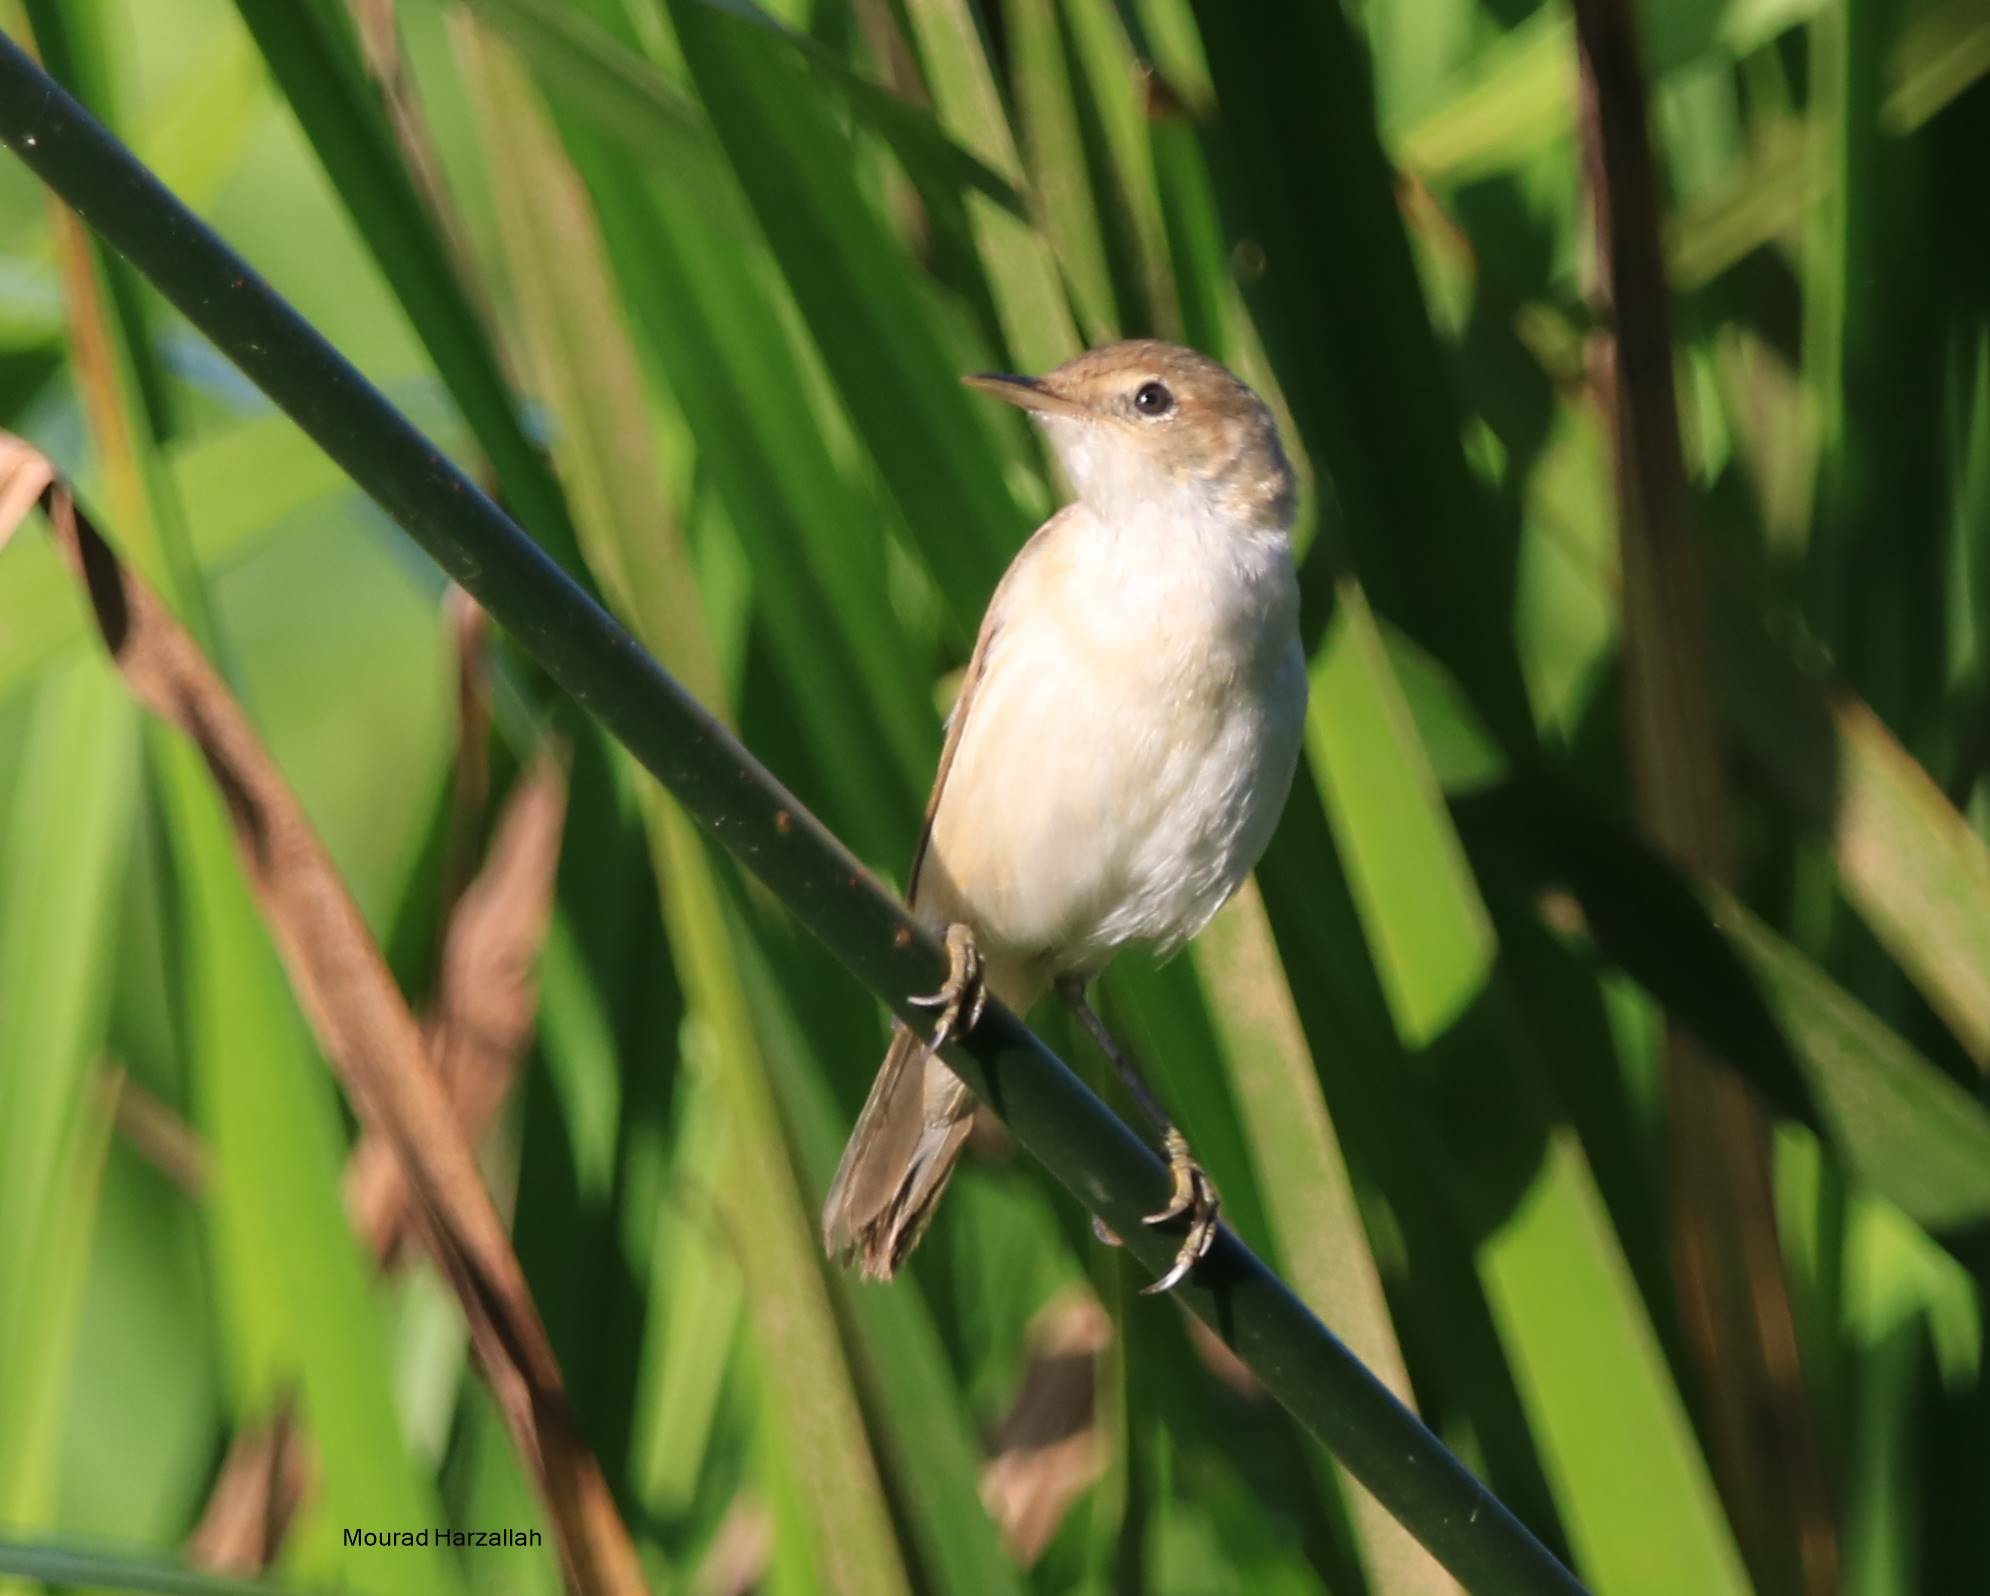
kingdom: Animalia
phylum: Chordata
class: Aves
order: Passeriformes
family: Acrocephalidae
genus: Acrocephalus
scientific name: Acrocephalus scirpaceus
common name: Eurasian reed warbler
